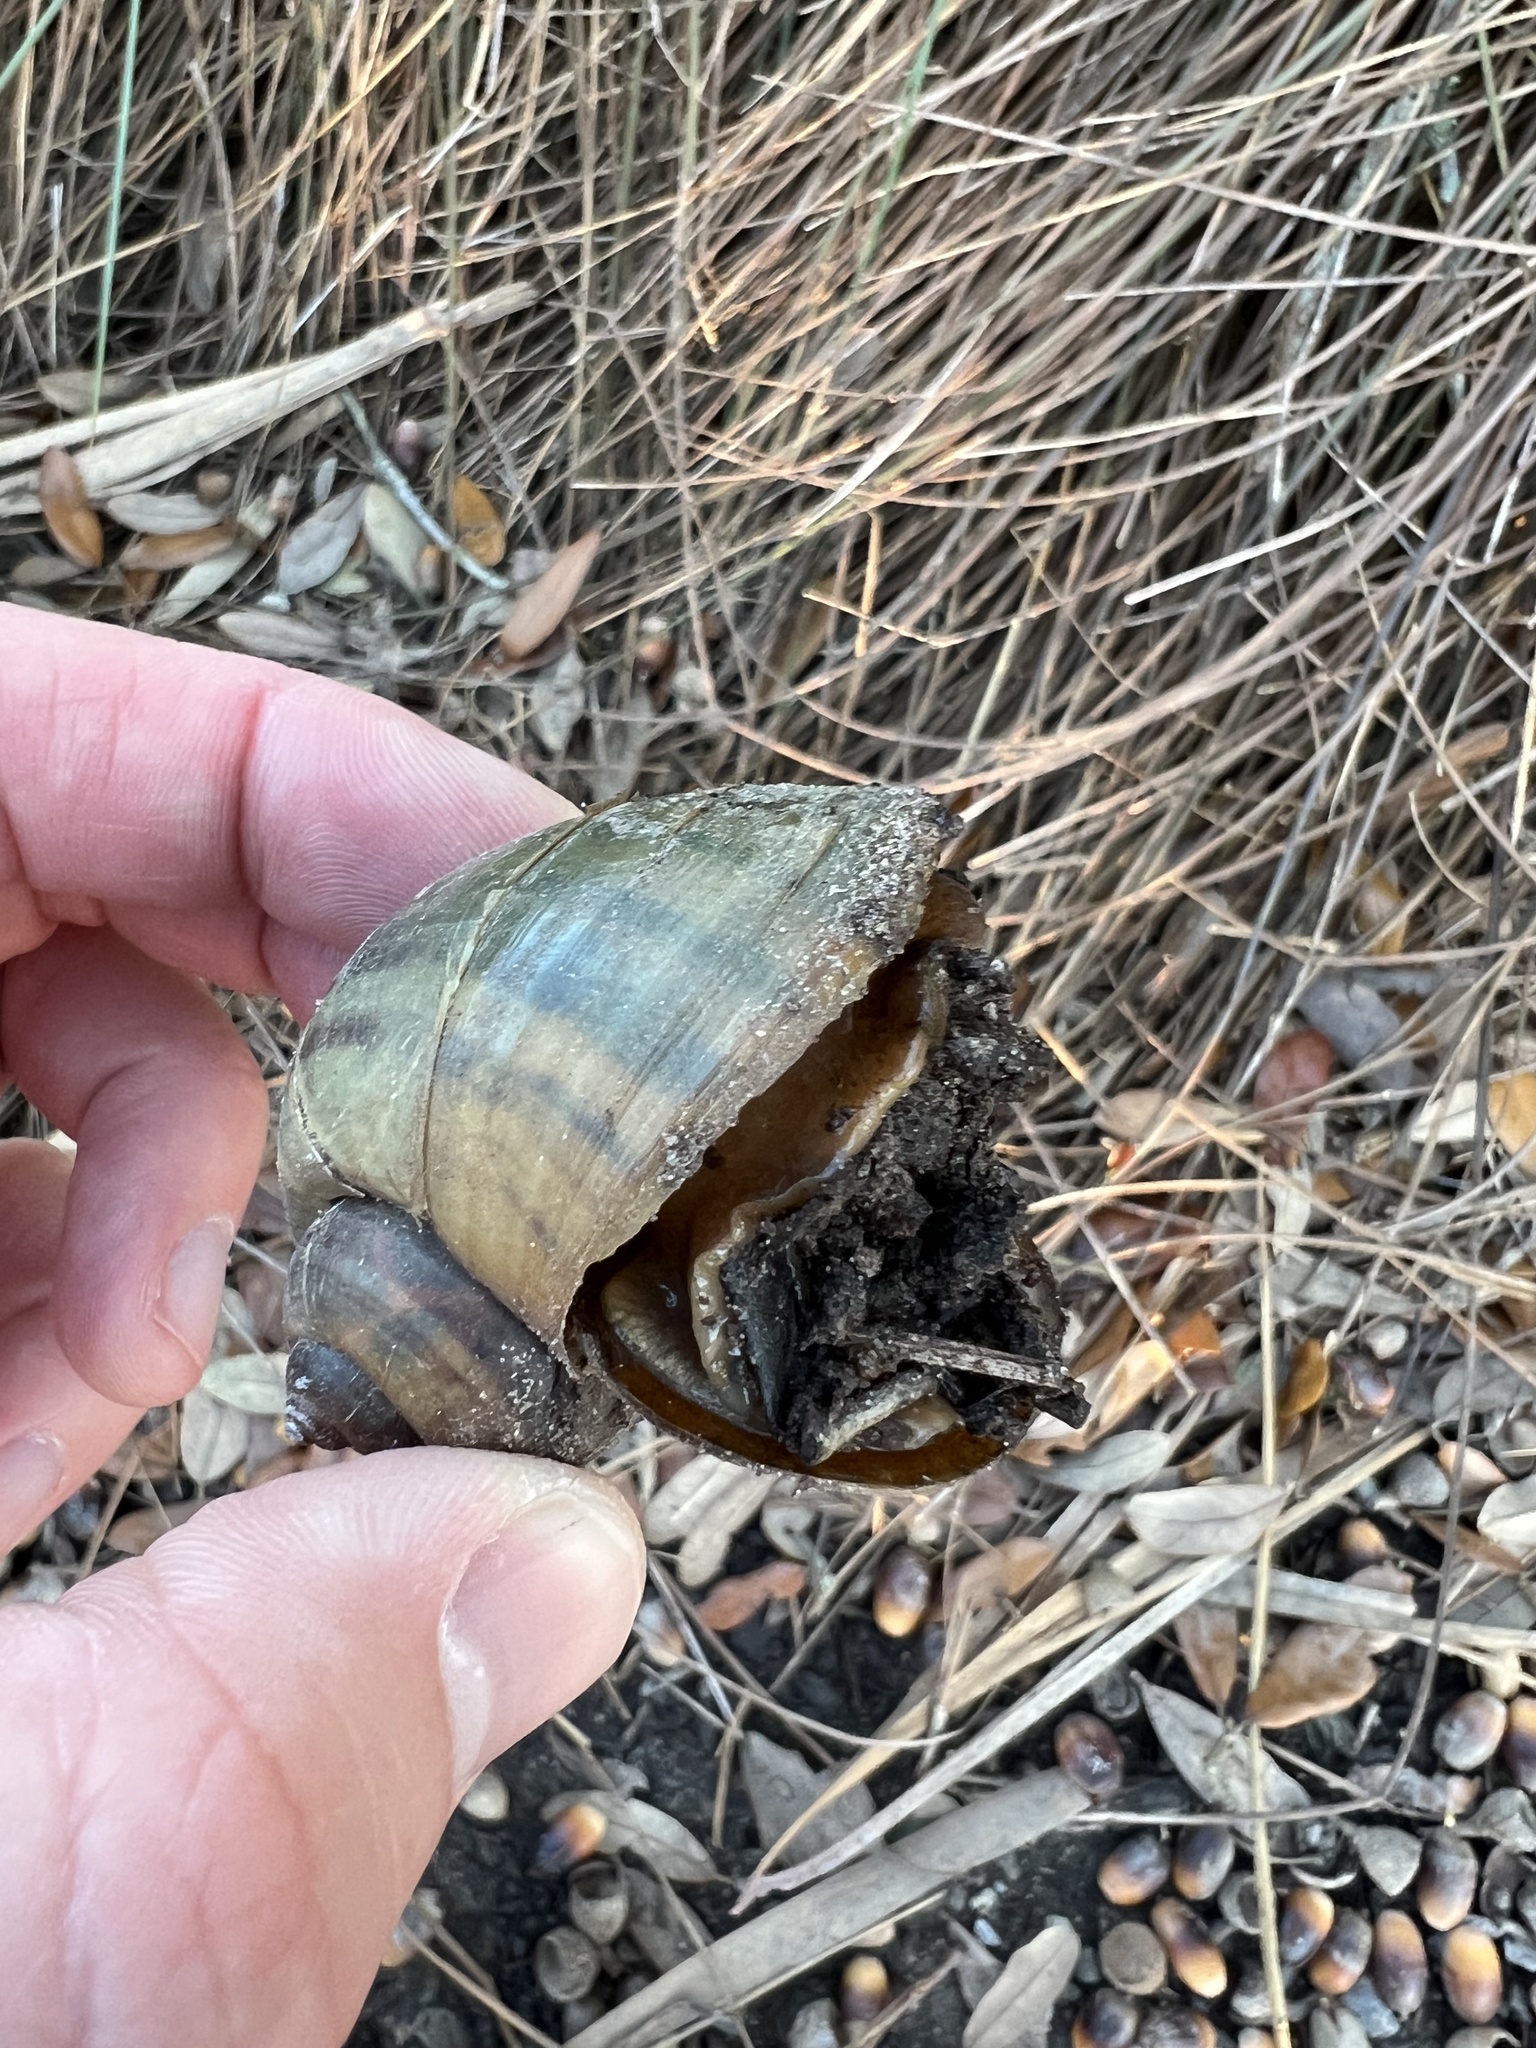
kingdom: Animalia
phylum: Mollusca
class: Gastropoda
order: Architaenioglossa
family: Ampullariidae
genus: Pomacea
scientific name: Pomacea maculata
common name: Giant applesnail
